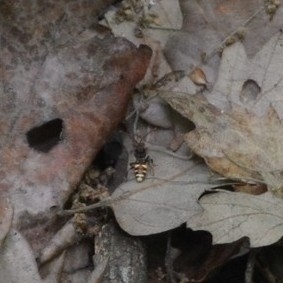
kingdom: Animalia
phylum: Arthropoda
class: Insecta
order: Hymenoptera
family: Apidae
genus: Nomada
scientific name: Nomada
